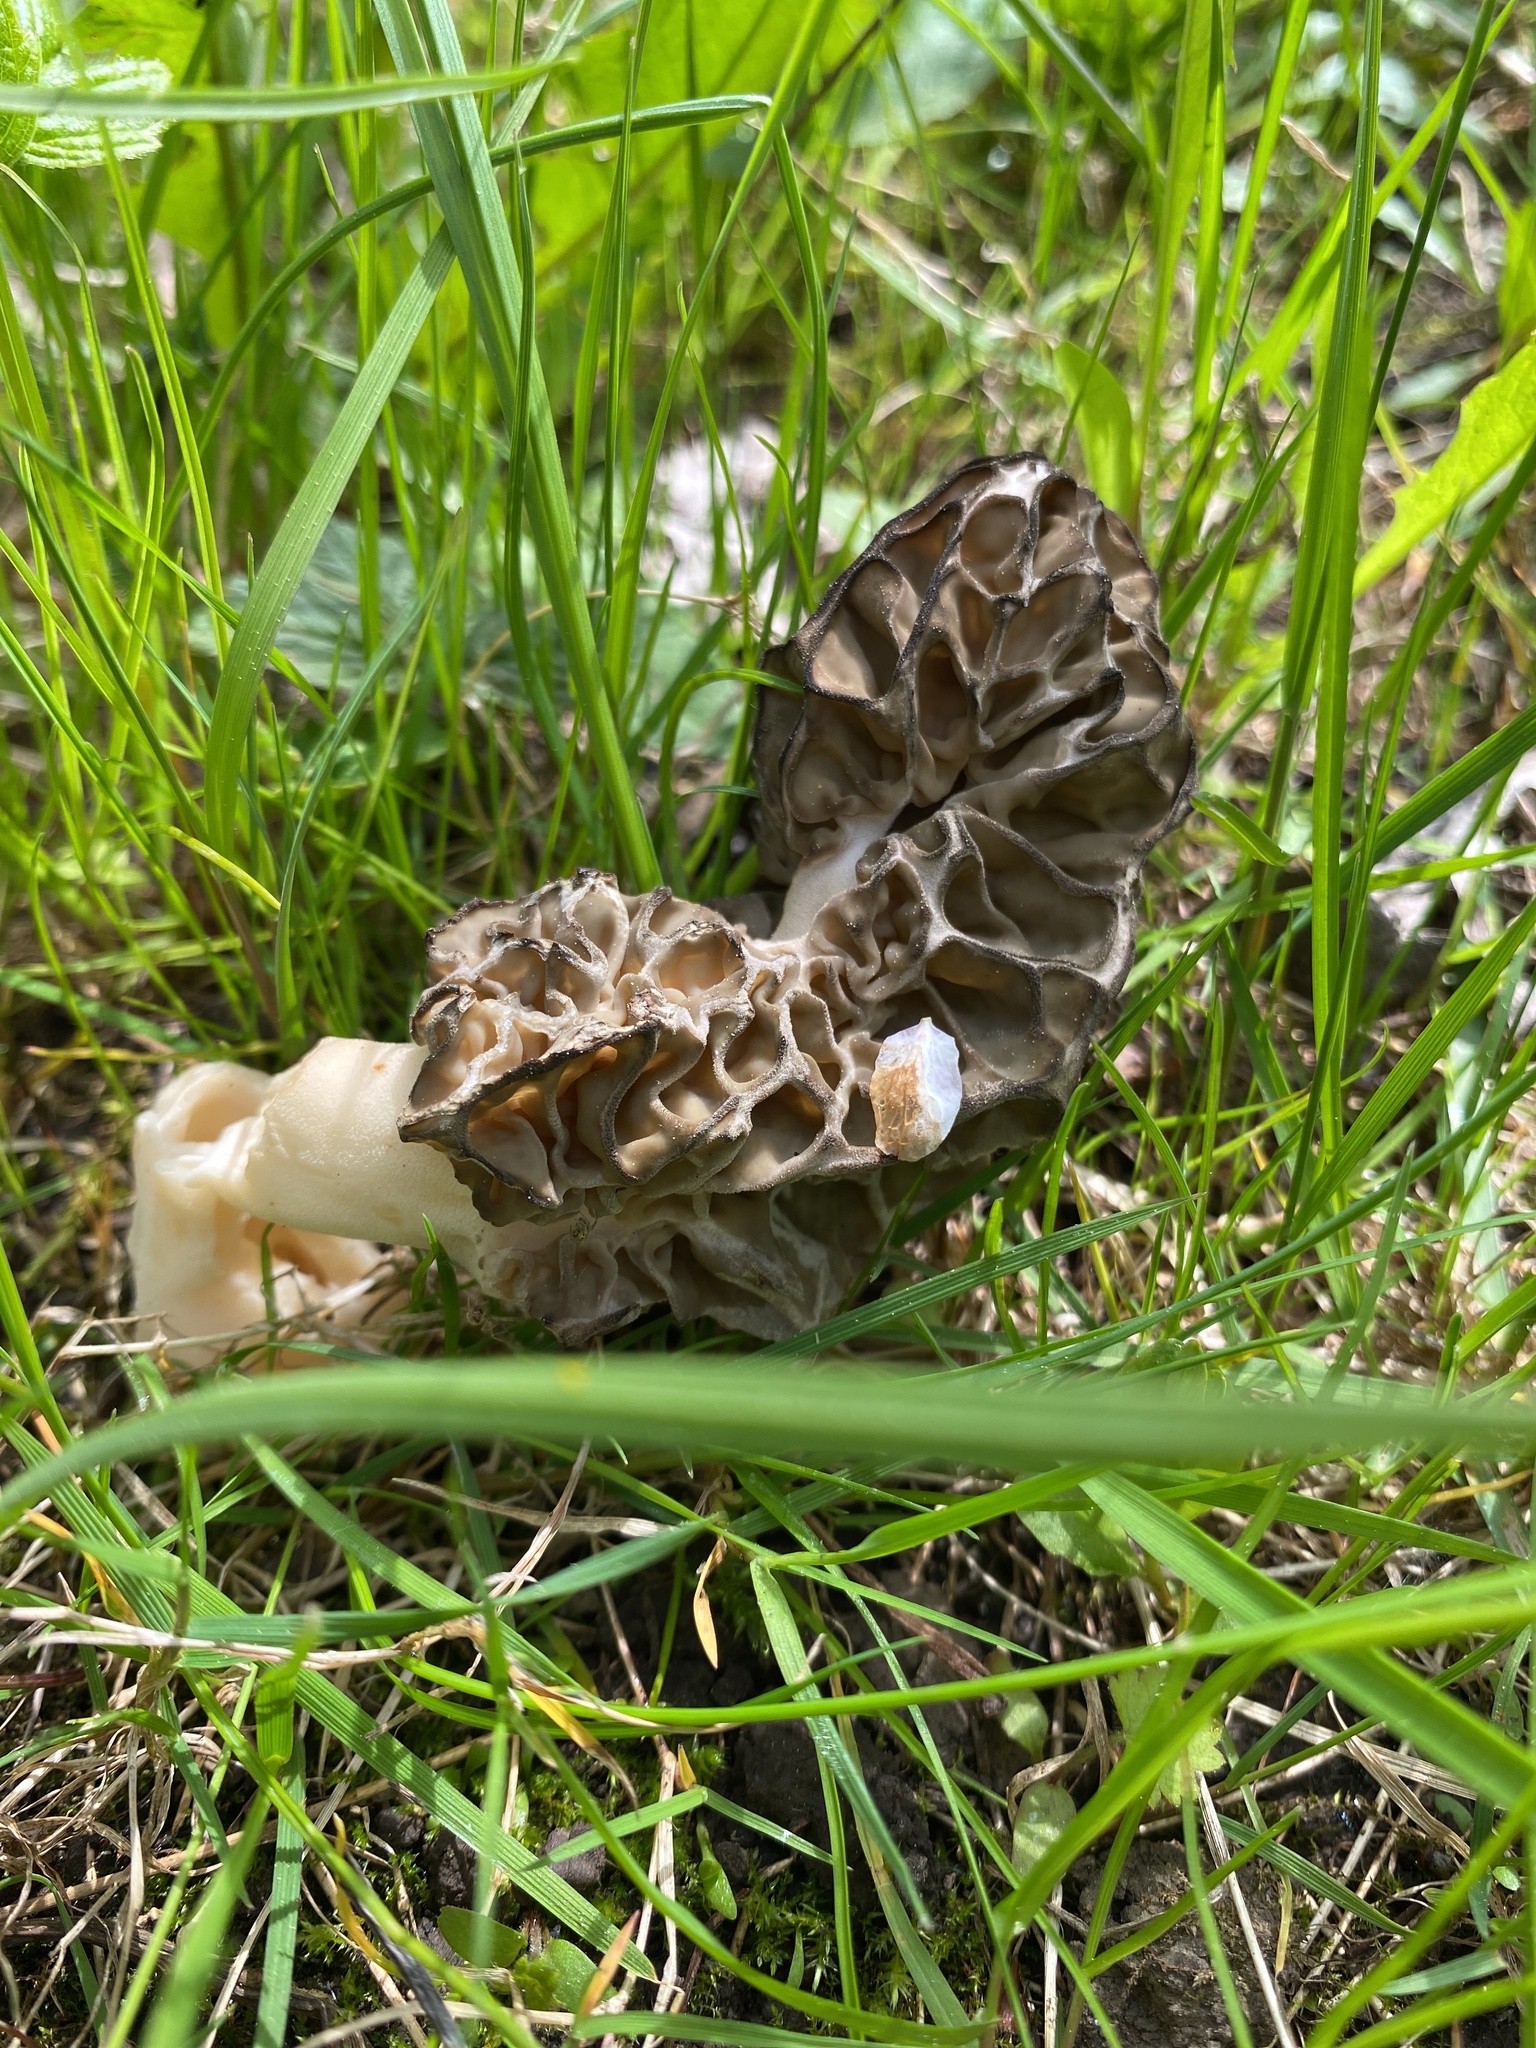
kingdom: Fungi
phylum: Ascomycota
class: Pezizomycetes
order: Pezizales
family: Morchellaceae
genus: Morchella
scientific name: Morchella
